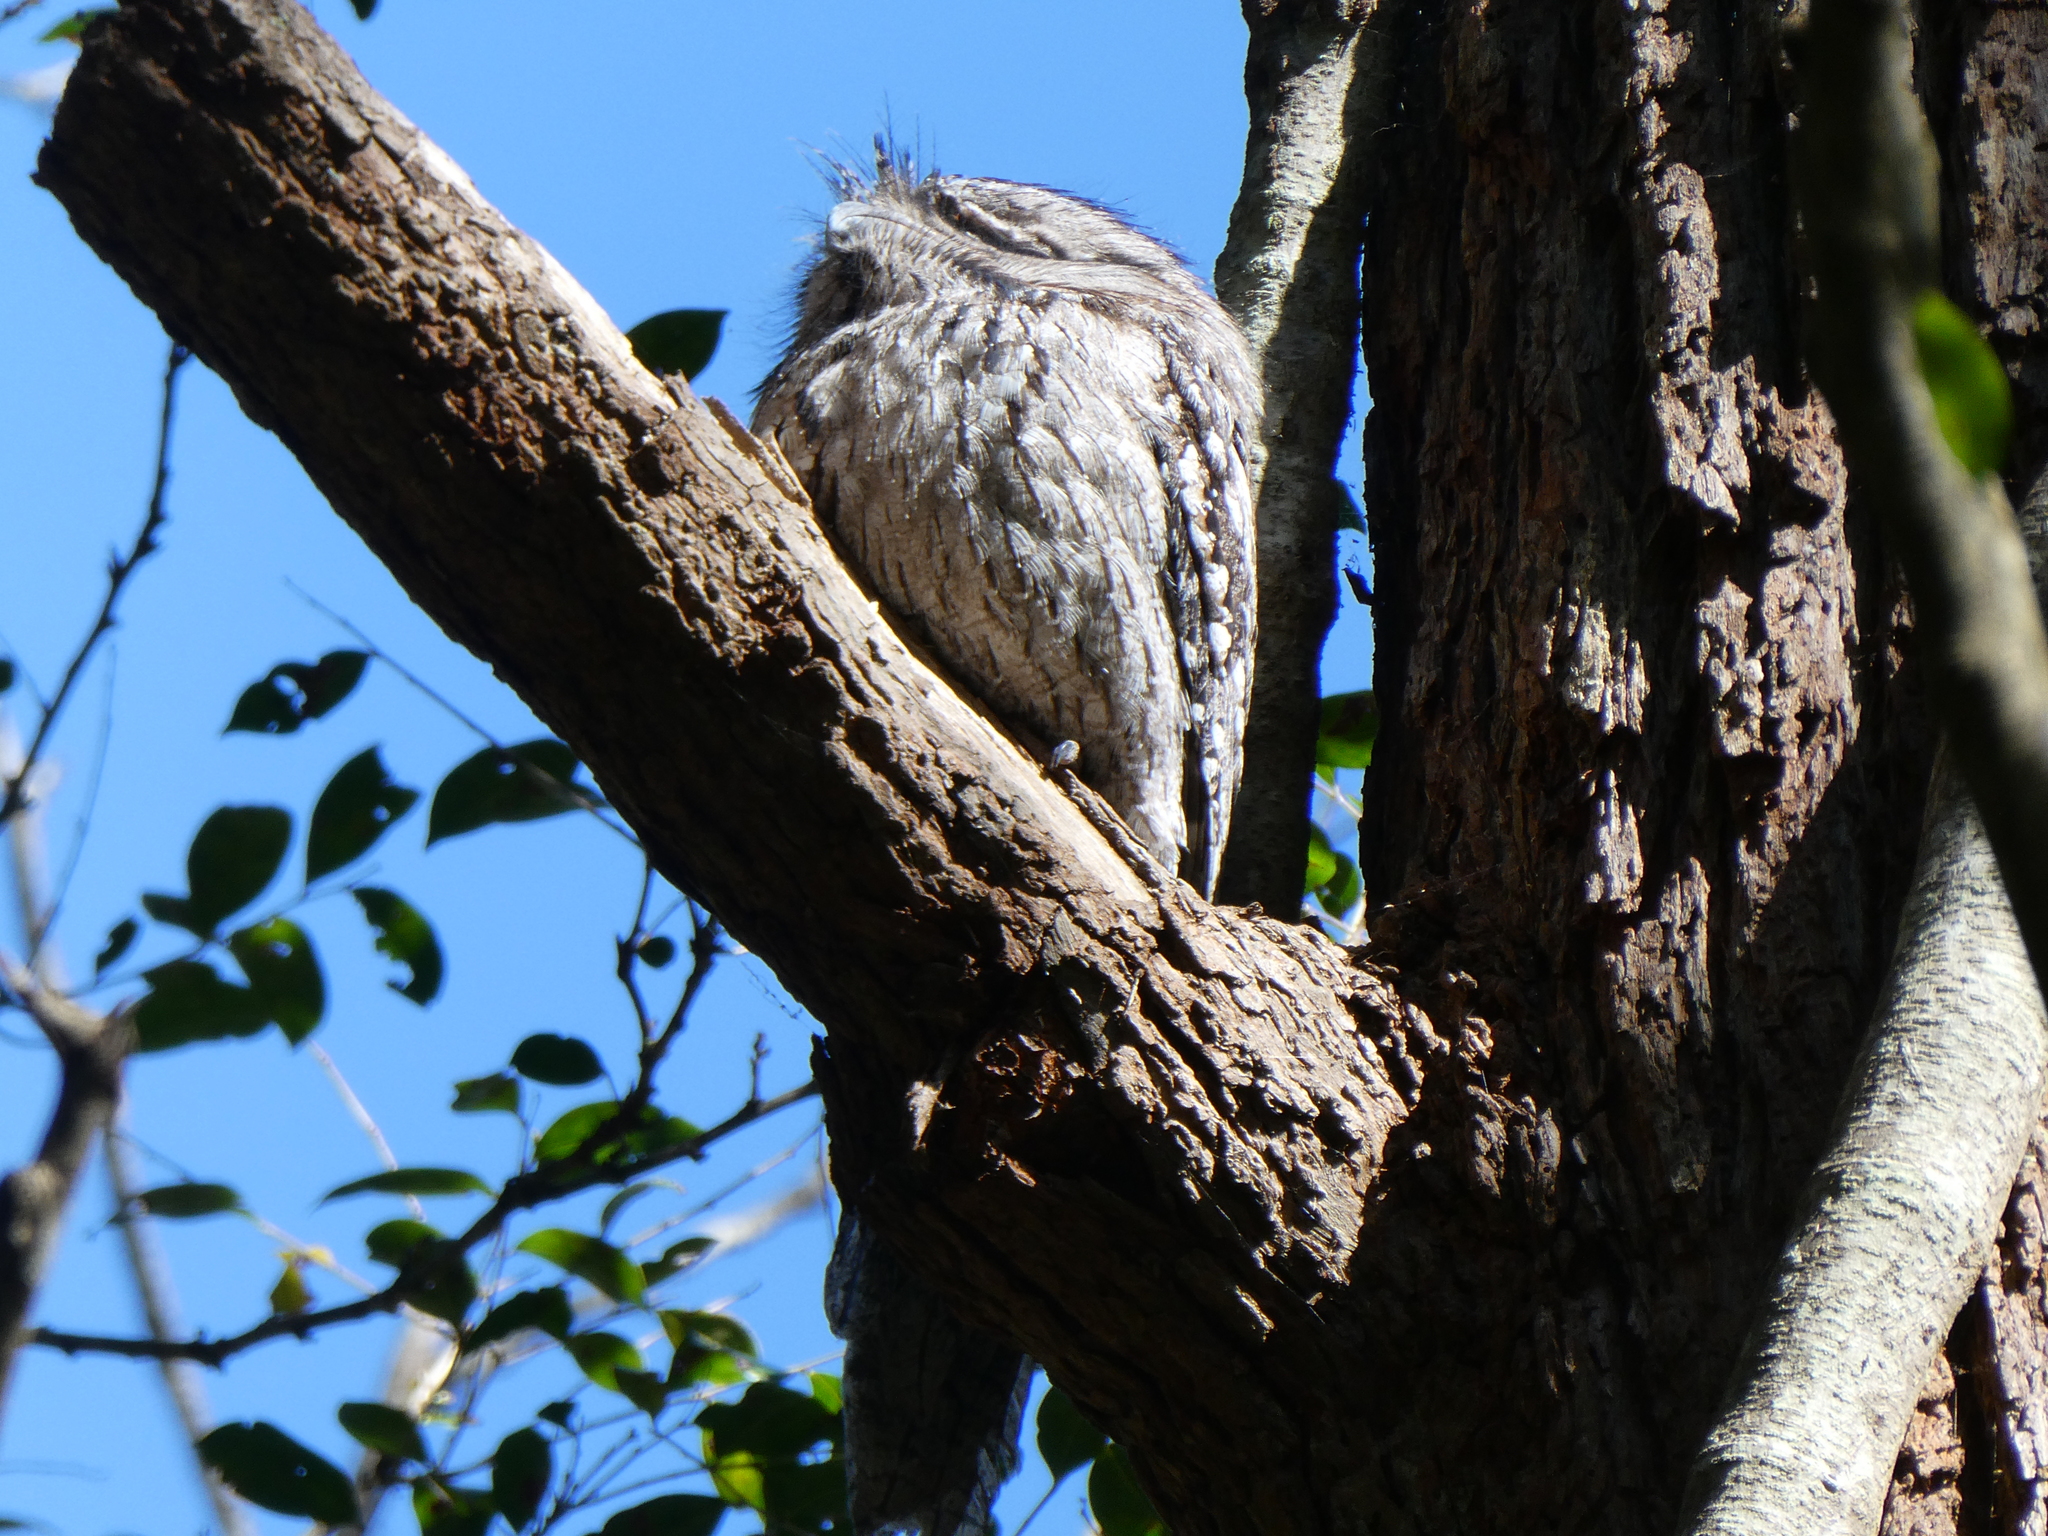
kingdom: Animalia
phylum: Chordata
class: Aves
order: Caprimulgiformes
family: Podargidae
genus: Podargus
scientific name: Podargus strigoides
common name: Tawny frogmouth
